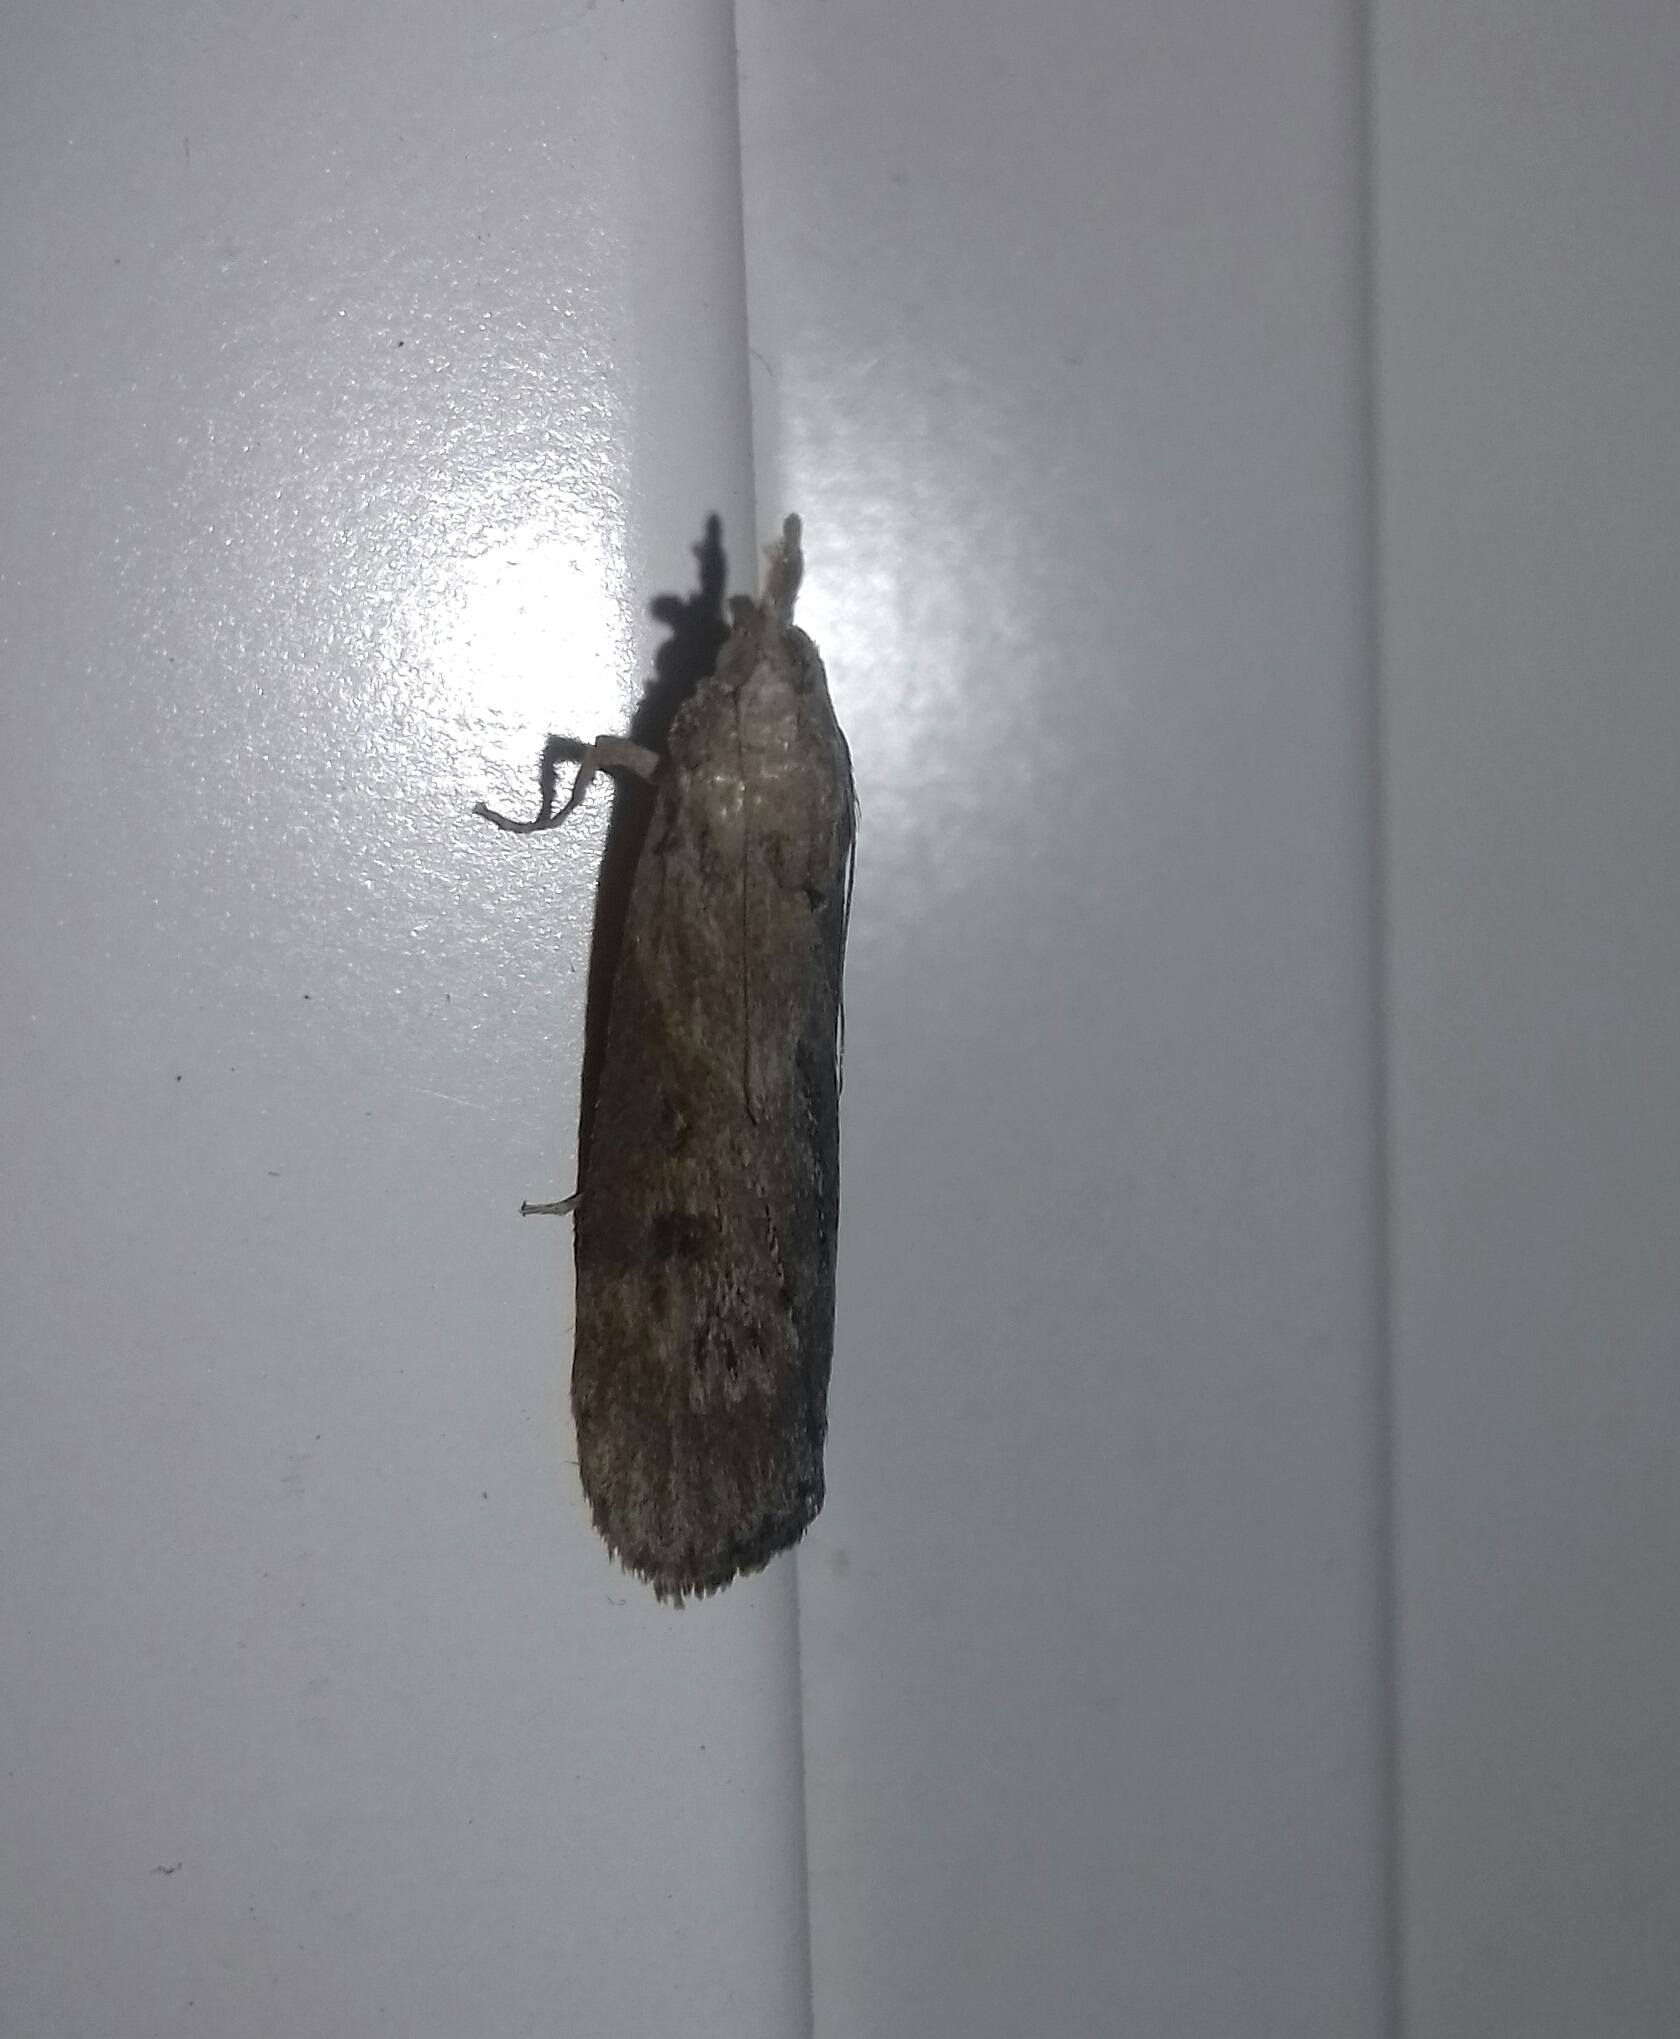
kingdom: Animalia
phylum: Arthropoda
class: Insecta
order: Lepidoptera
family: Pyralidae
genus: Lamoria
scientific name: Lamoria anella
